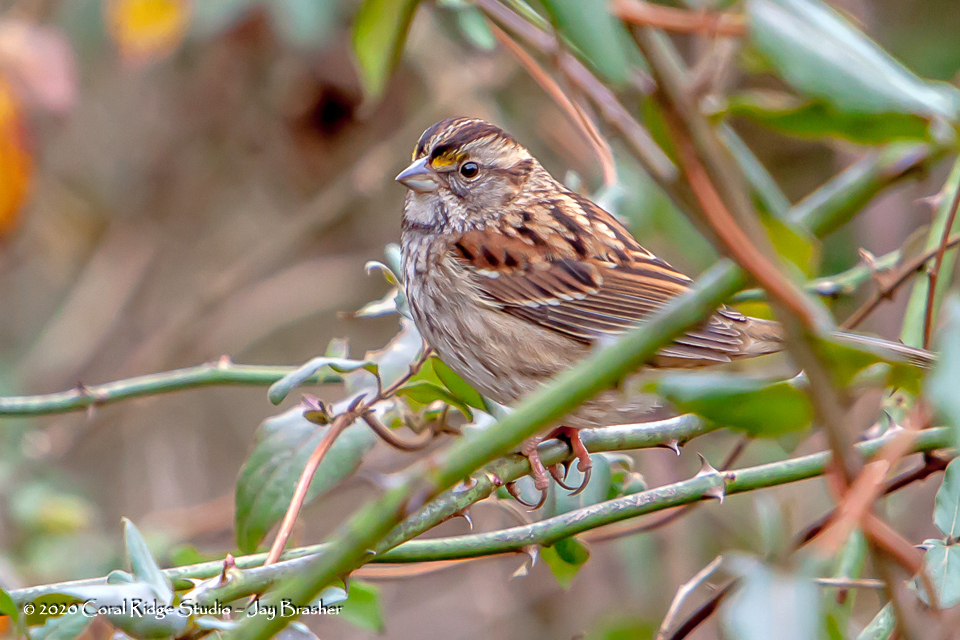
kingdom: Animalia
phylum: Chordata
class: Aves
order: Passeriformes
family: Passerellidae
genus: Zonotrichia
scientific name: Zonotrichia albicollis
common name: White-throated sparrow
